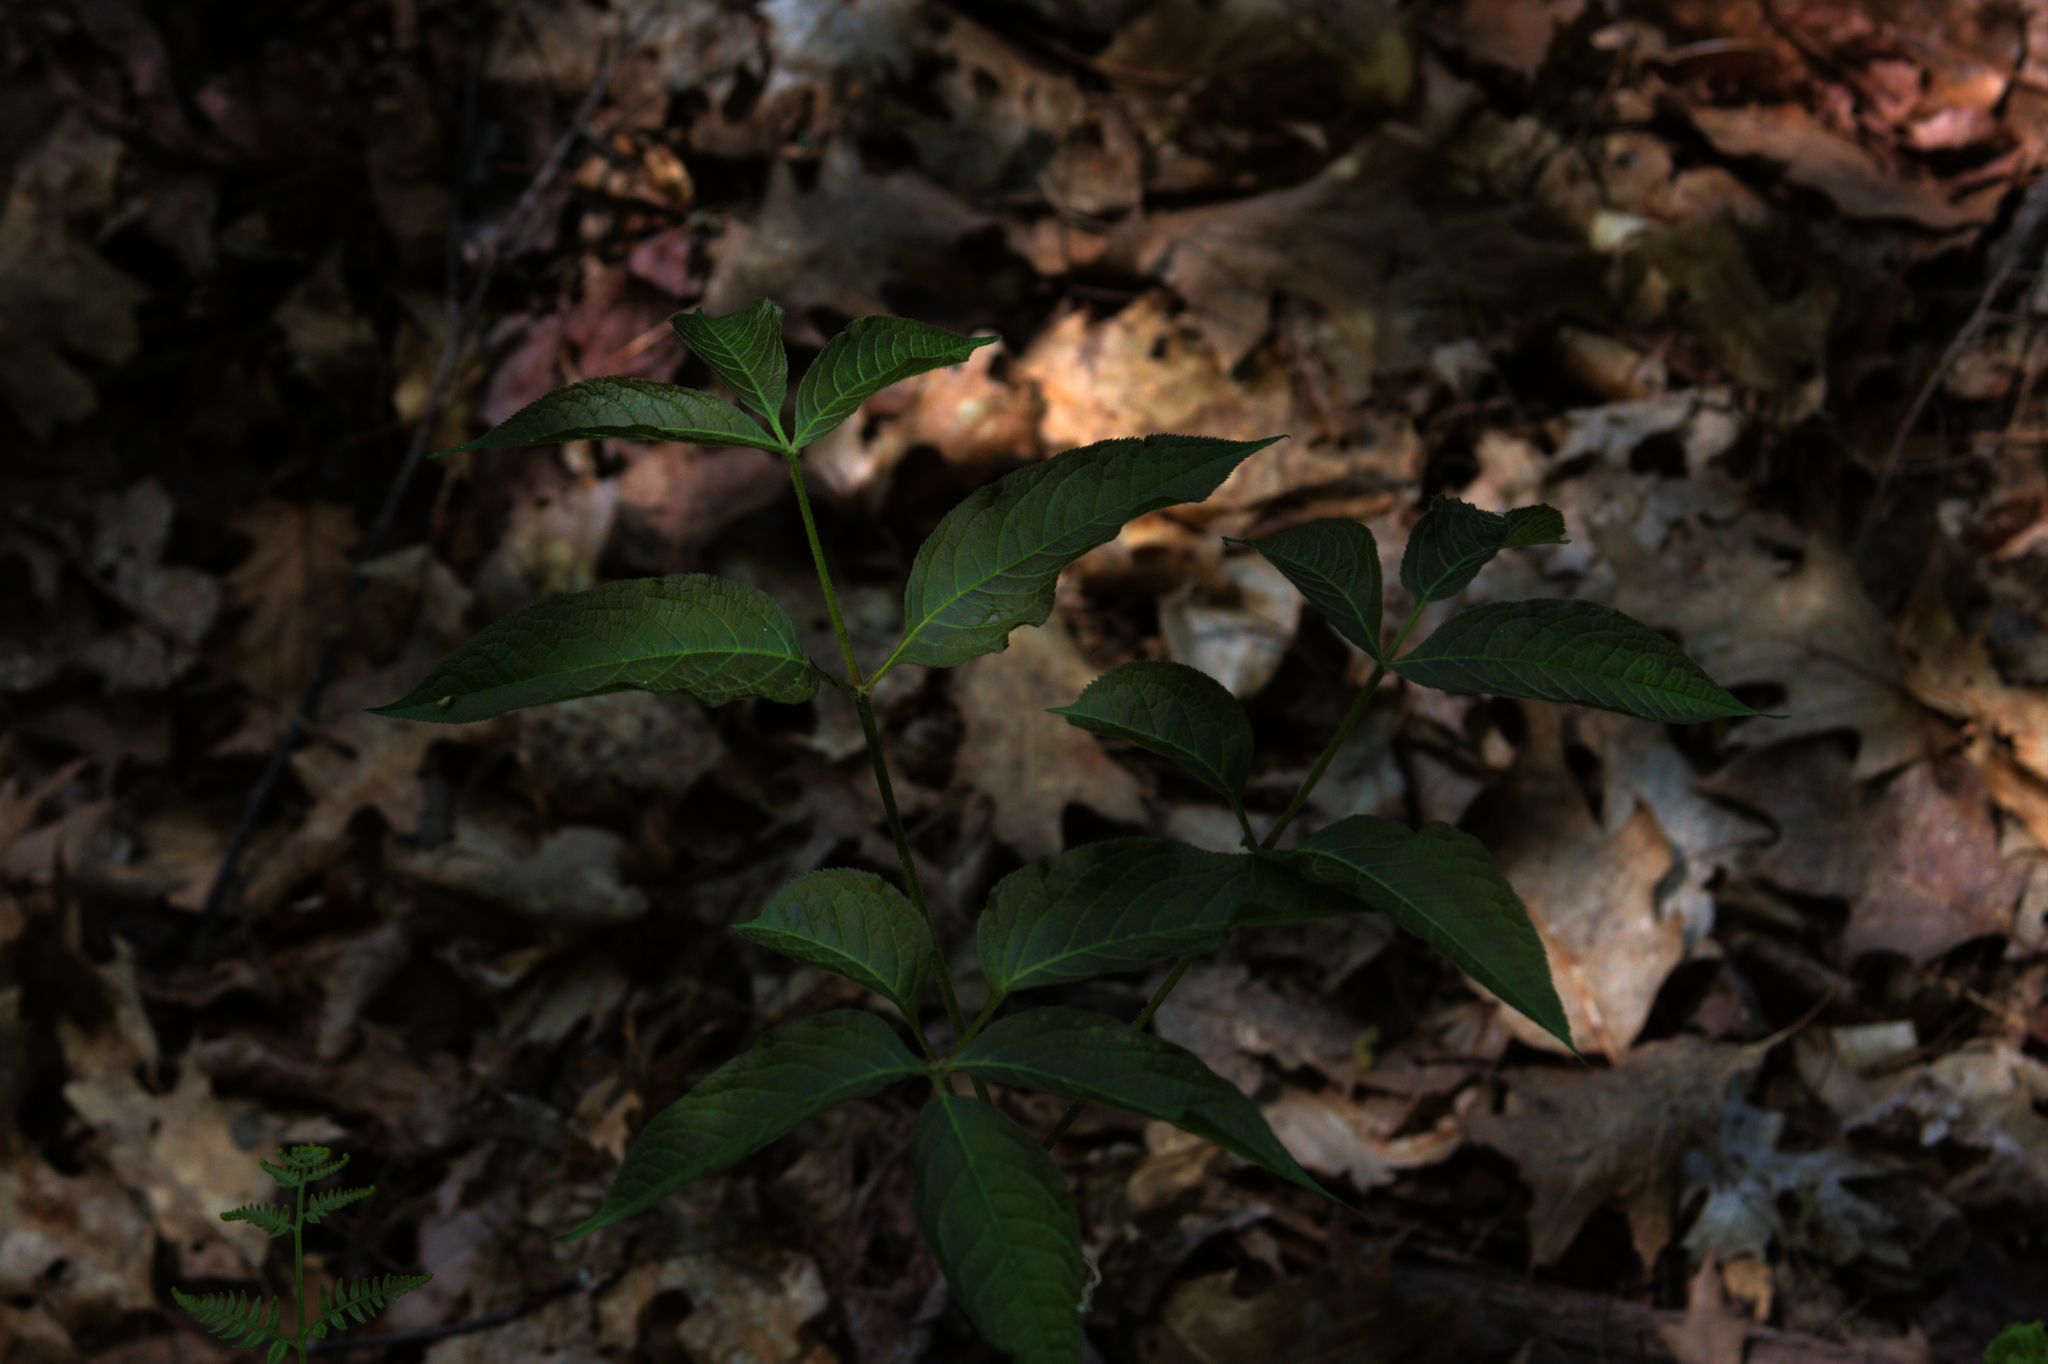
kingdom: Plantae
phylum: Tracheophyta
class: Magnoliopsida
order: Apiales
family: Araliaceae
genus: Aralia
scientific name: Aralia nudicaulis
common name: Wild sarsaparilla
